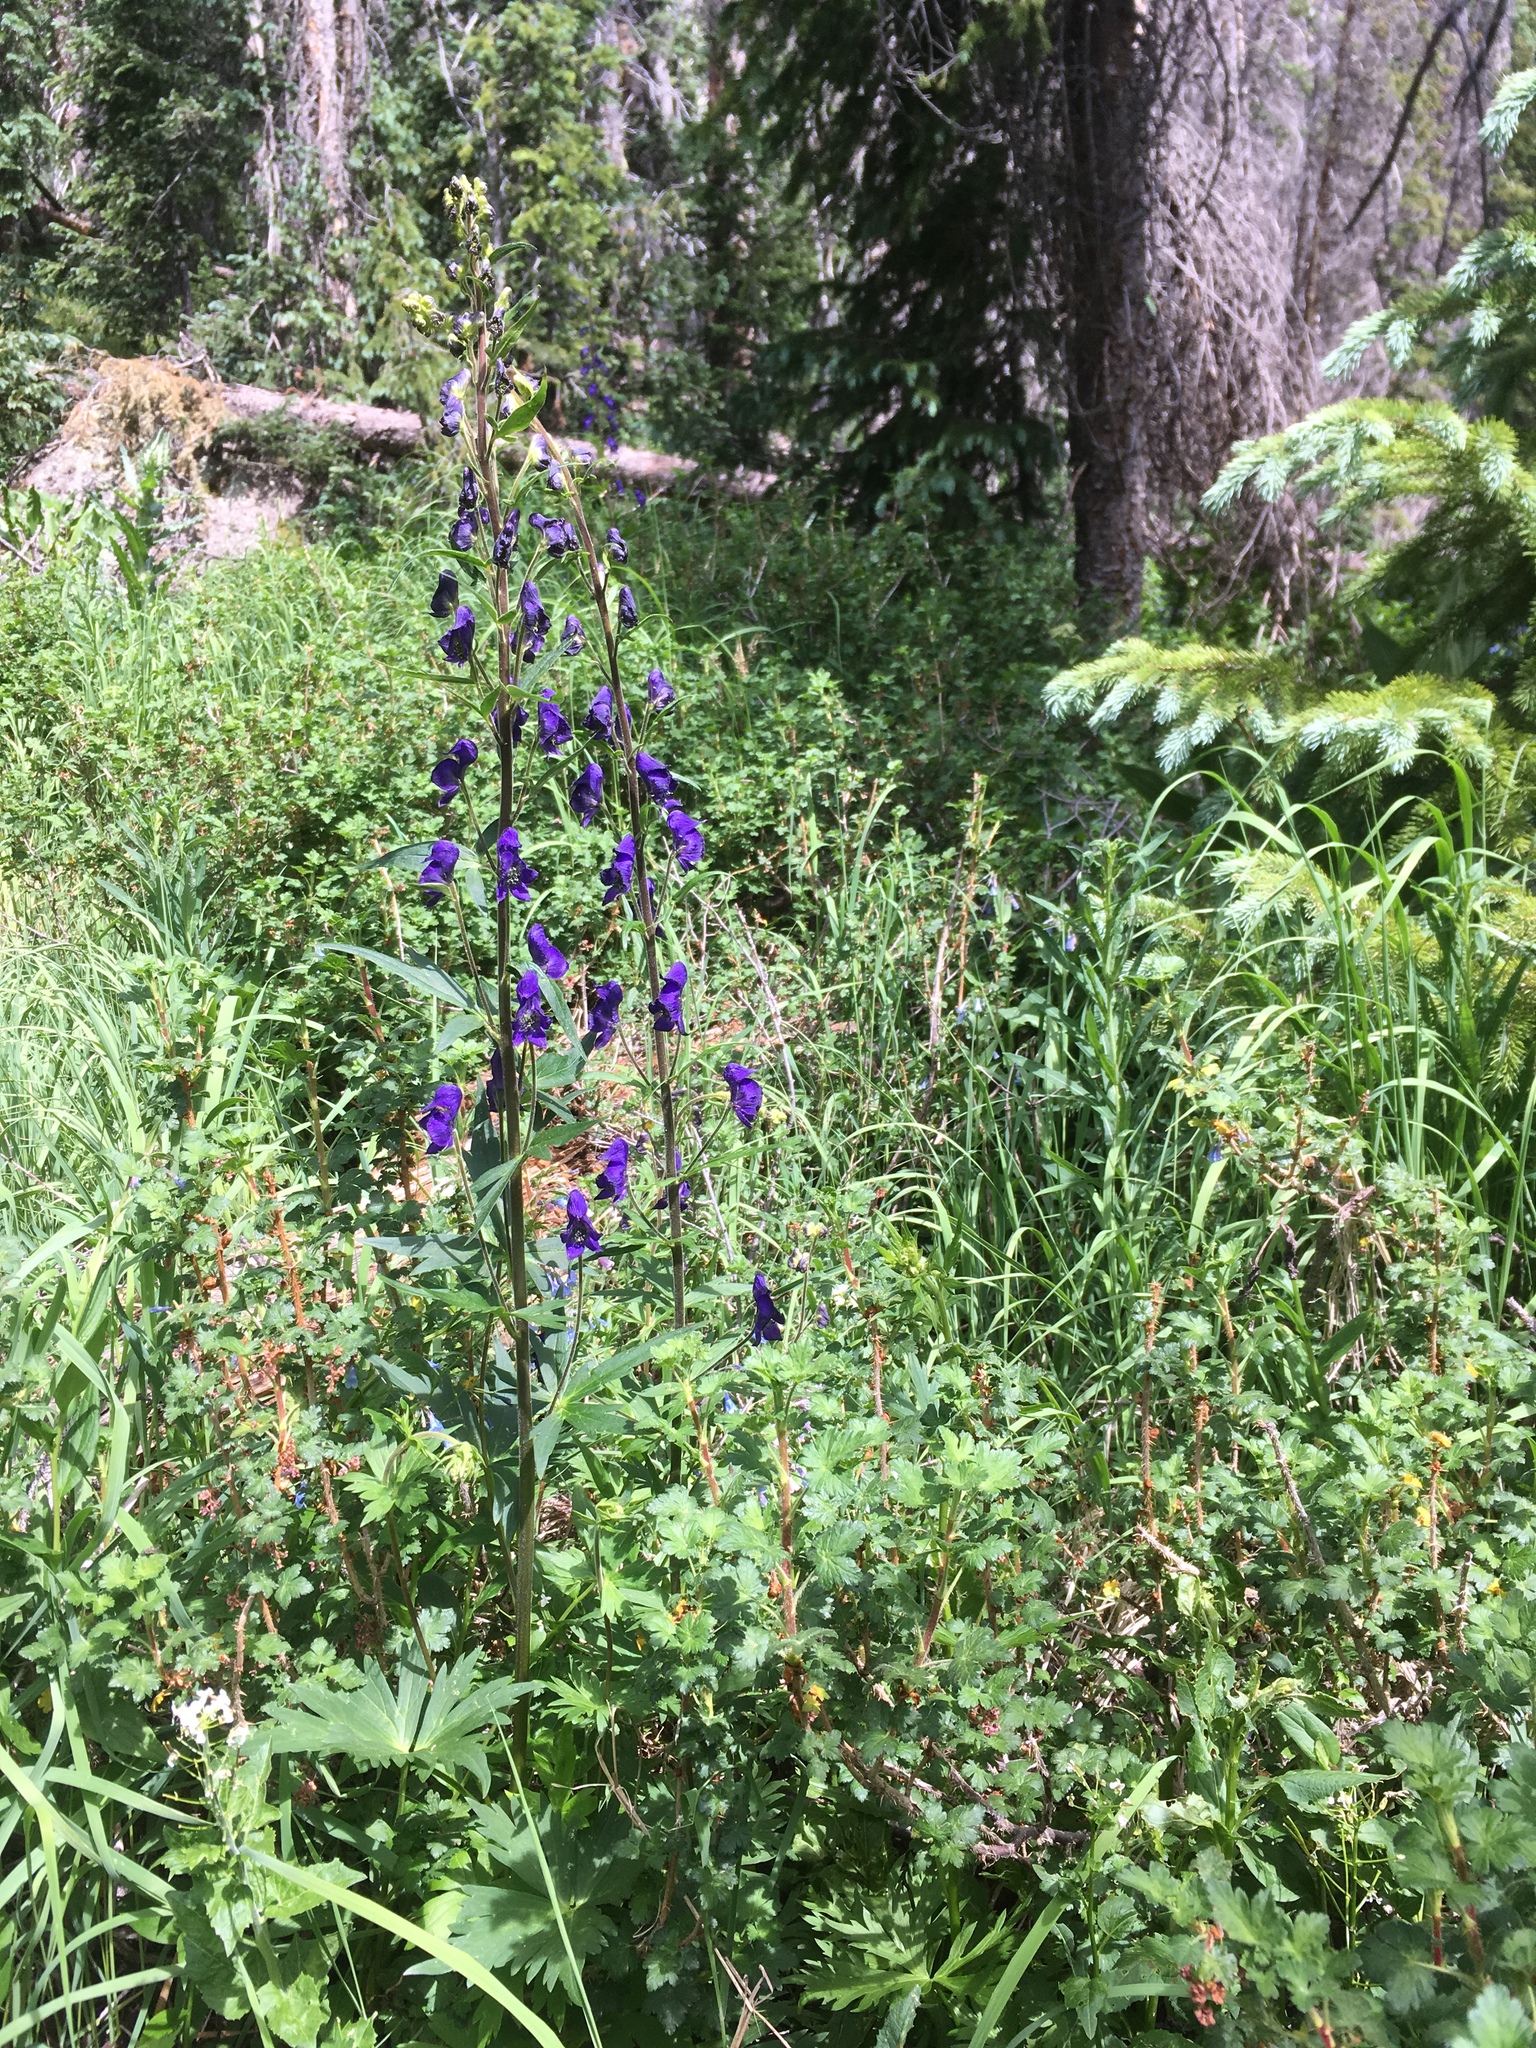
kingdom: Plantae
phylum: Tracheophyta
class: Magnoliopsida
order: Ranunculales
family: Ranunculaceae
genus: Aconitum
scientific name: Aconitum columbianum
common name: Columbia aconite
